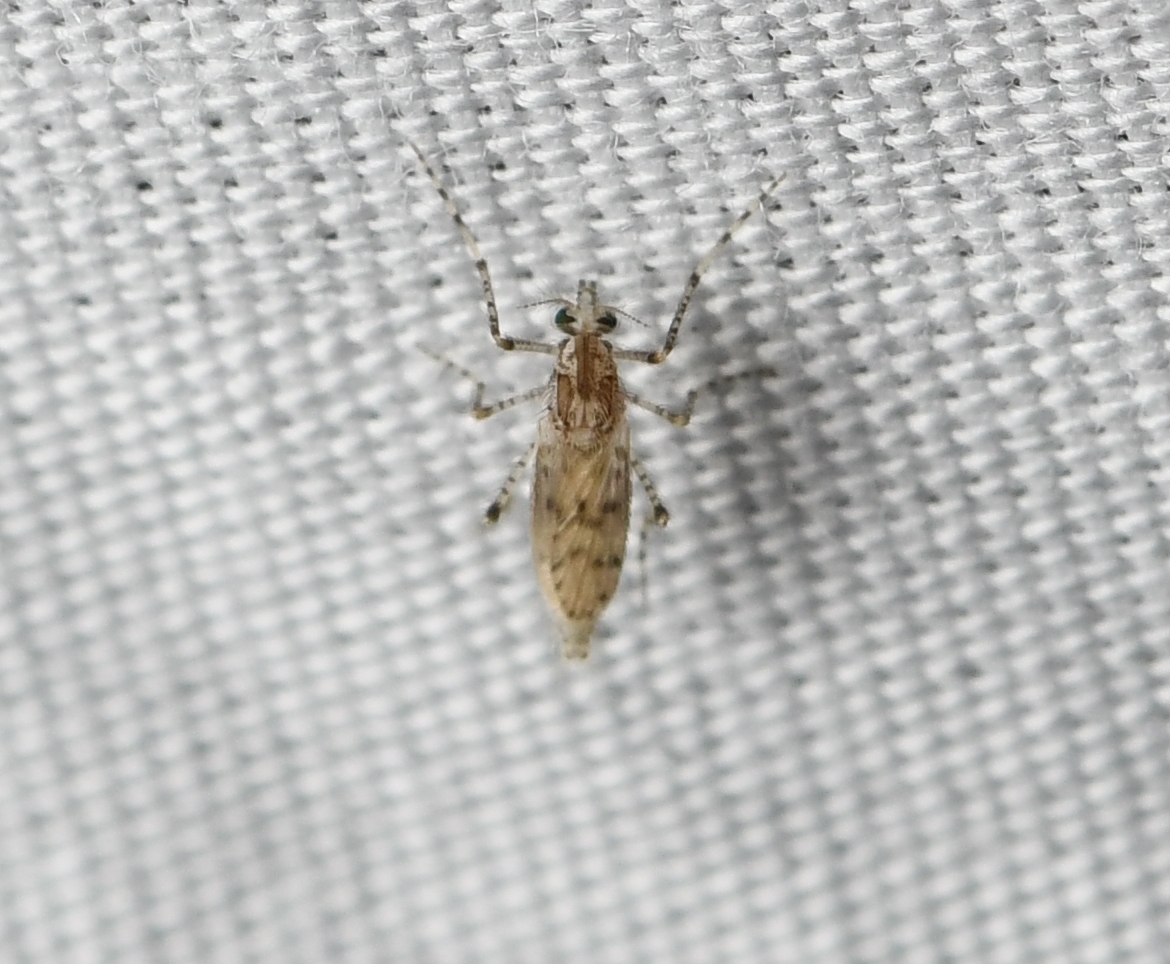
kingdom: Animalia
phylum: Arthropoda
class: Insecta
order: Diptera
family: Chaoboridae
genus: Chaoborus
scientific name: Chaoborus punctipennis
